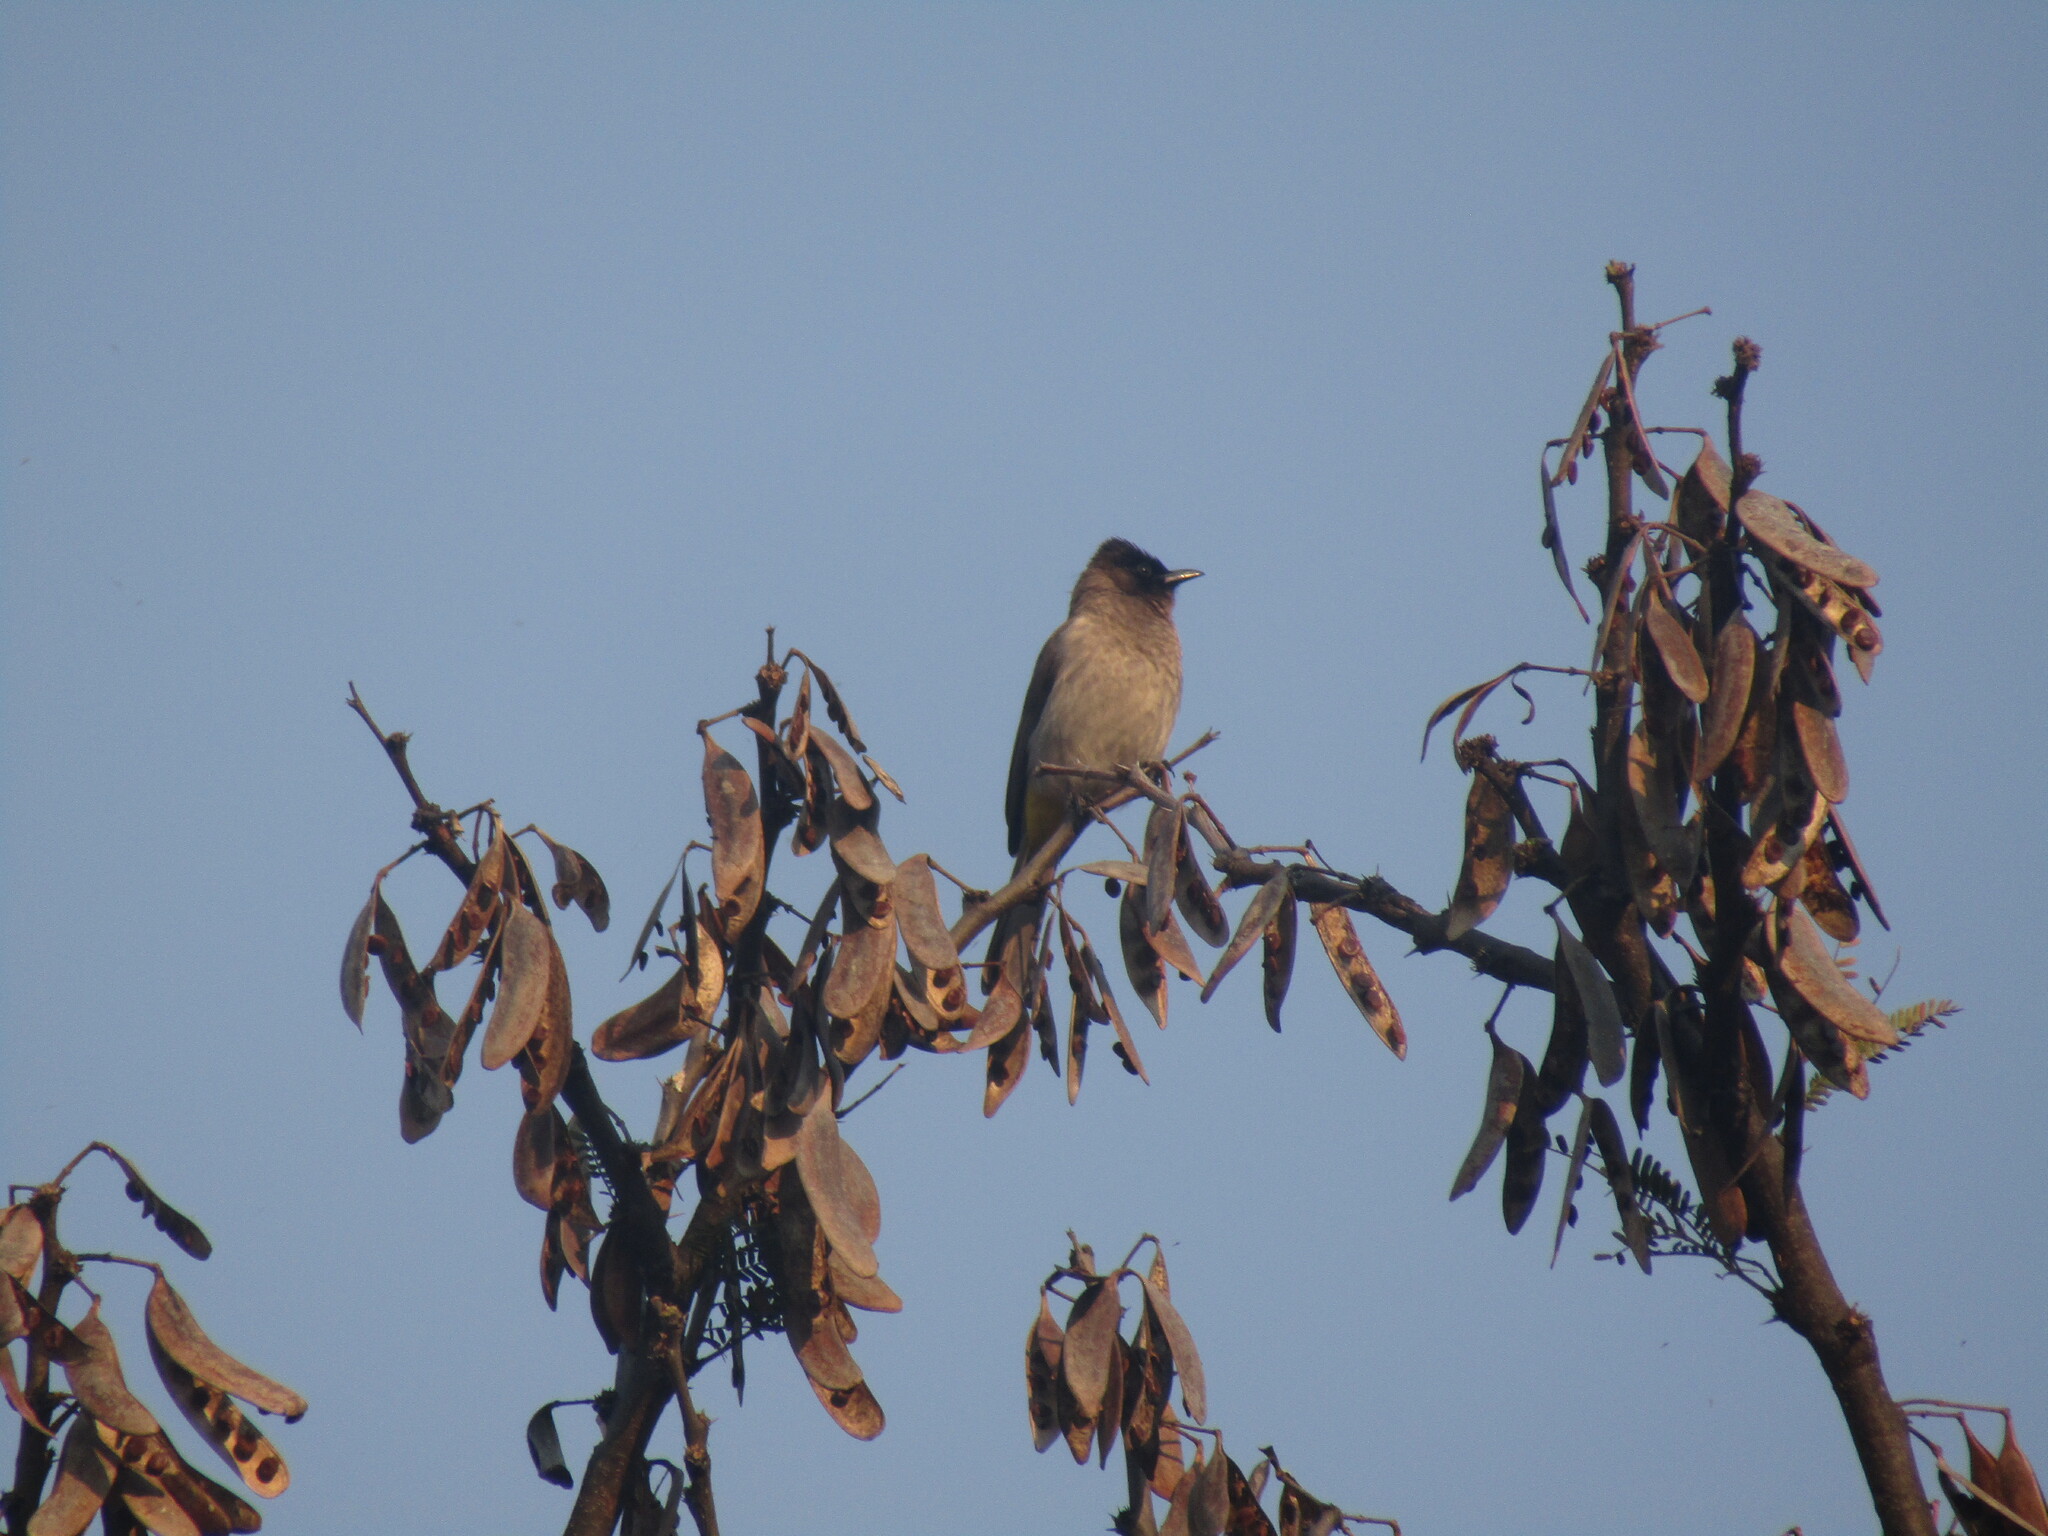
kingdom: Animalia
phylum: Chordata
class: Aves
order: Passeriformes
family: Pycnonotidae
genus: Pycnonotus
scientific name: Pycnonotus barbatus
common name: Common bulbul
